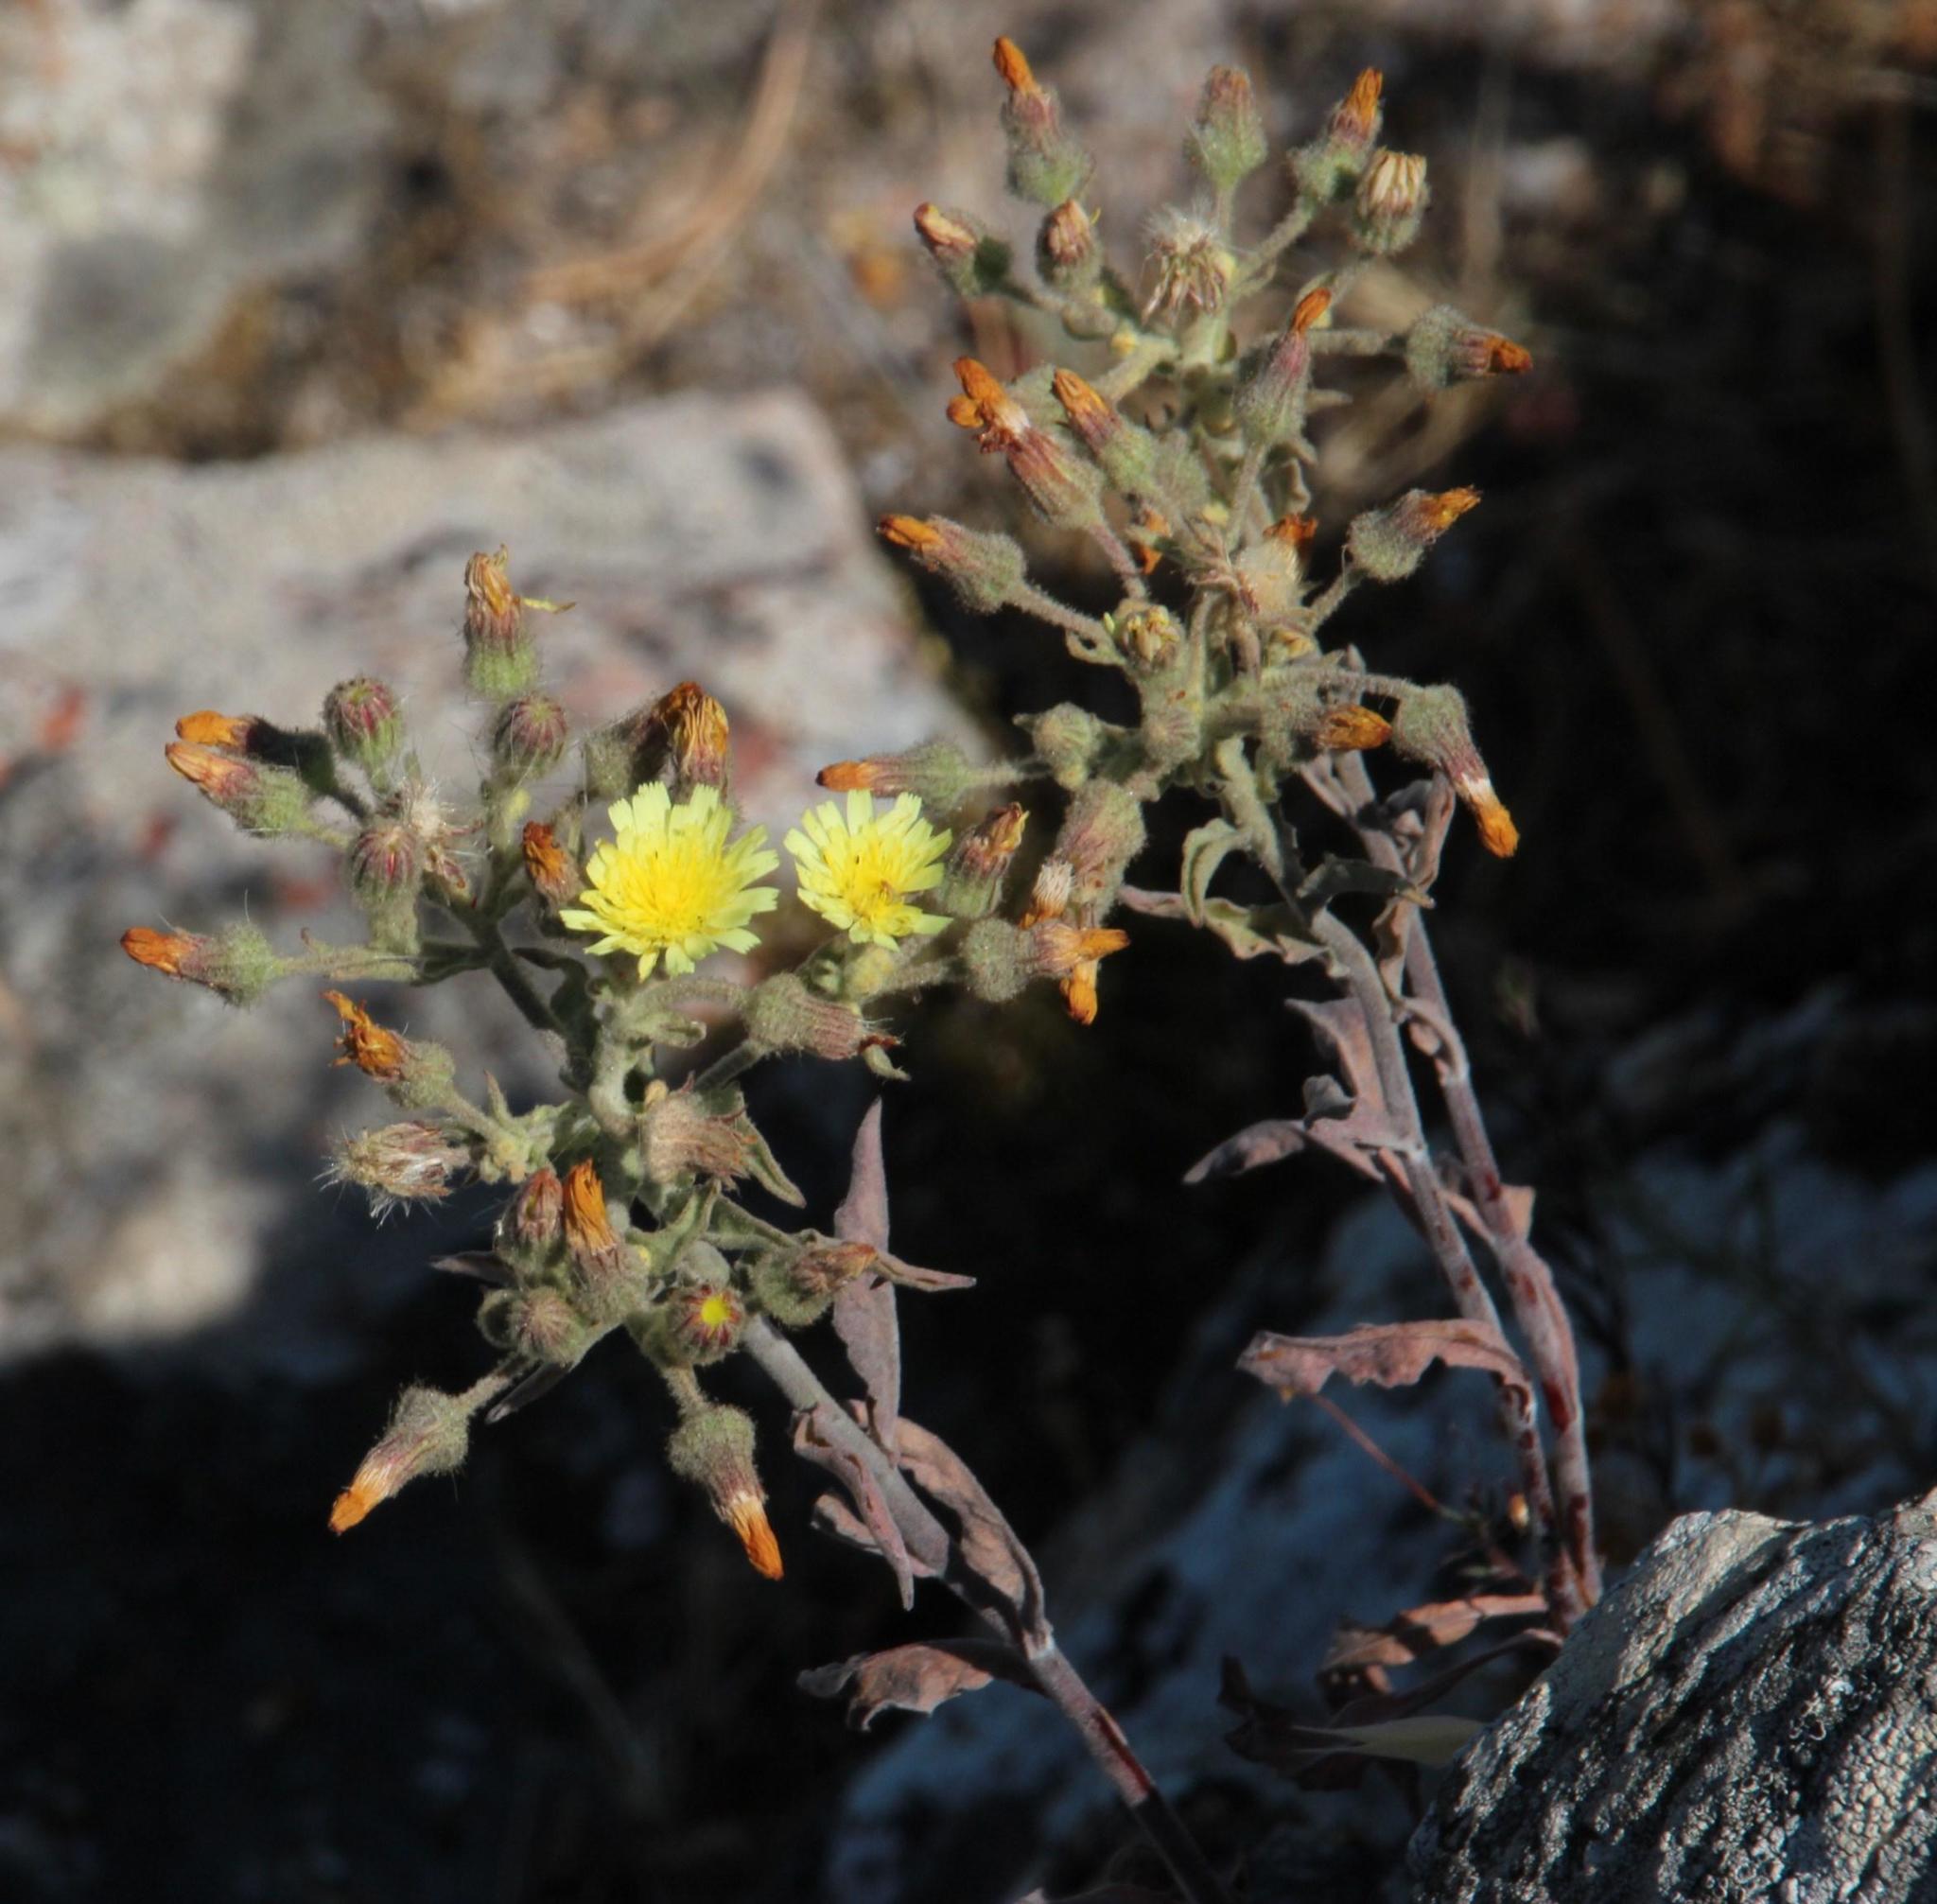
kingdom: Plantae
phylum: Tracheophyta
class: Magnoliopsida
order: Asterales
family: Asteraceae
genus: Andryala
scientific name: Andryala integrifolia
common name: Common andryala
